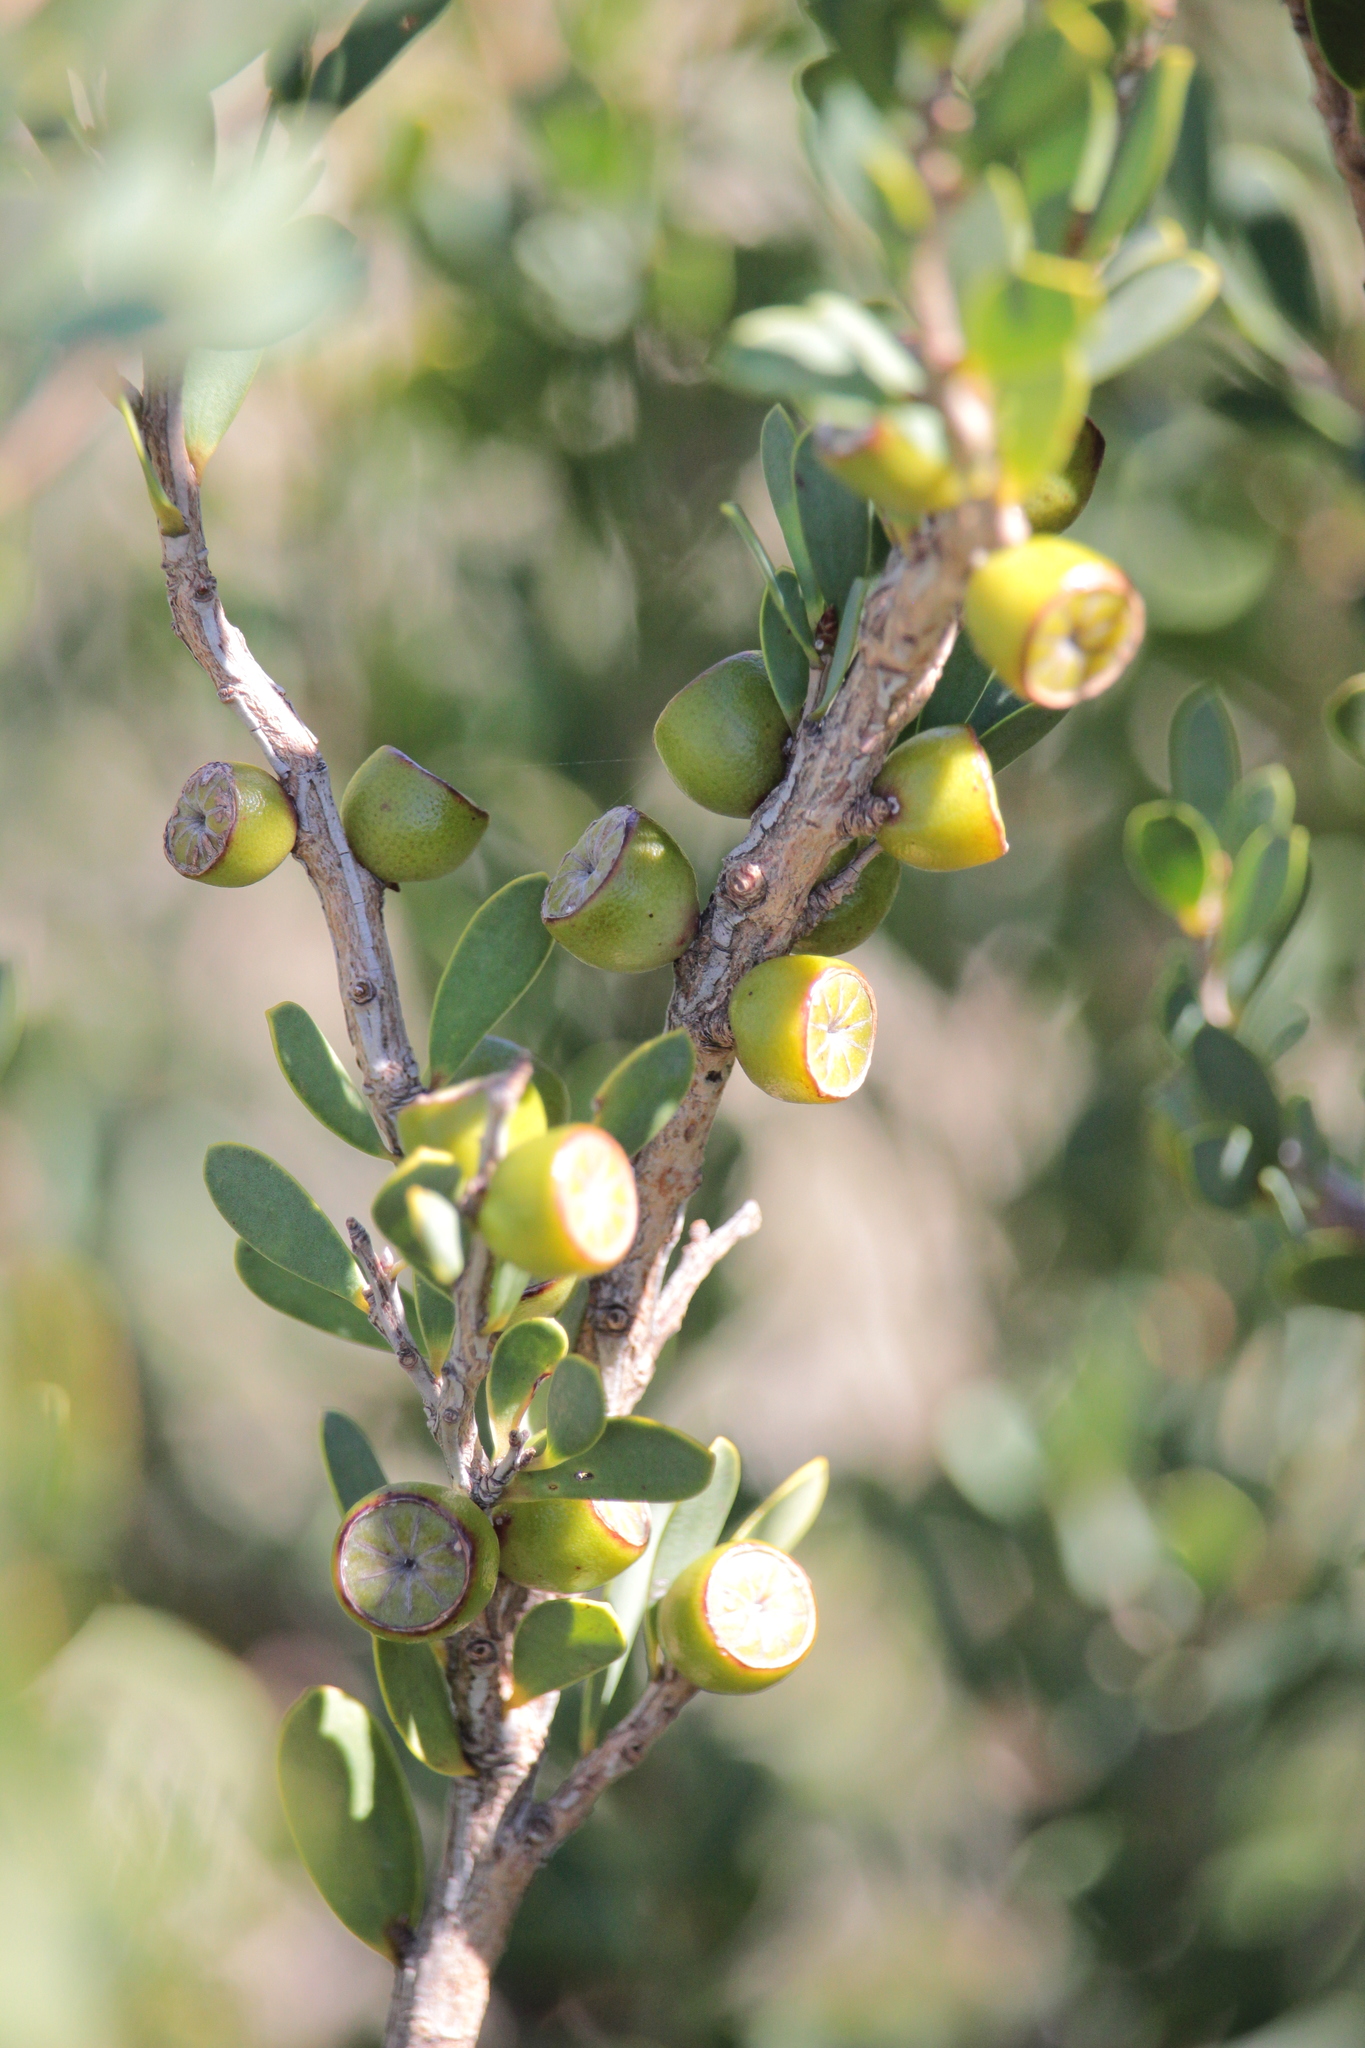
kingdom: Plantae
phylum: Tracheophyta
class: Magnoliopsida
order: Myrtales
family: Myrtaceae
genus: Leptospermum
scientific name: Leptospermum laevigatum
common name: Australian teatree
